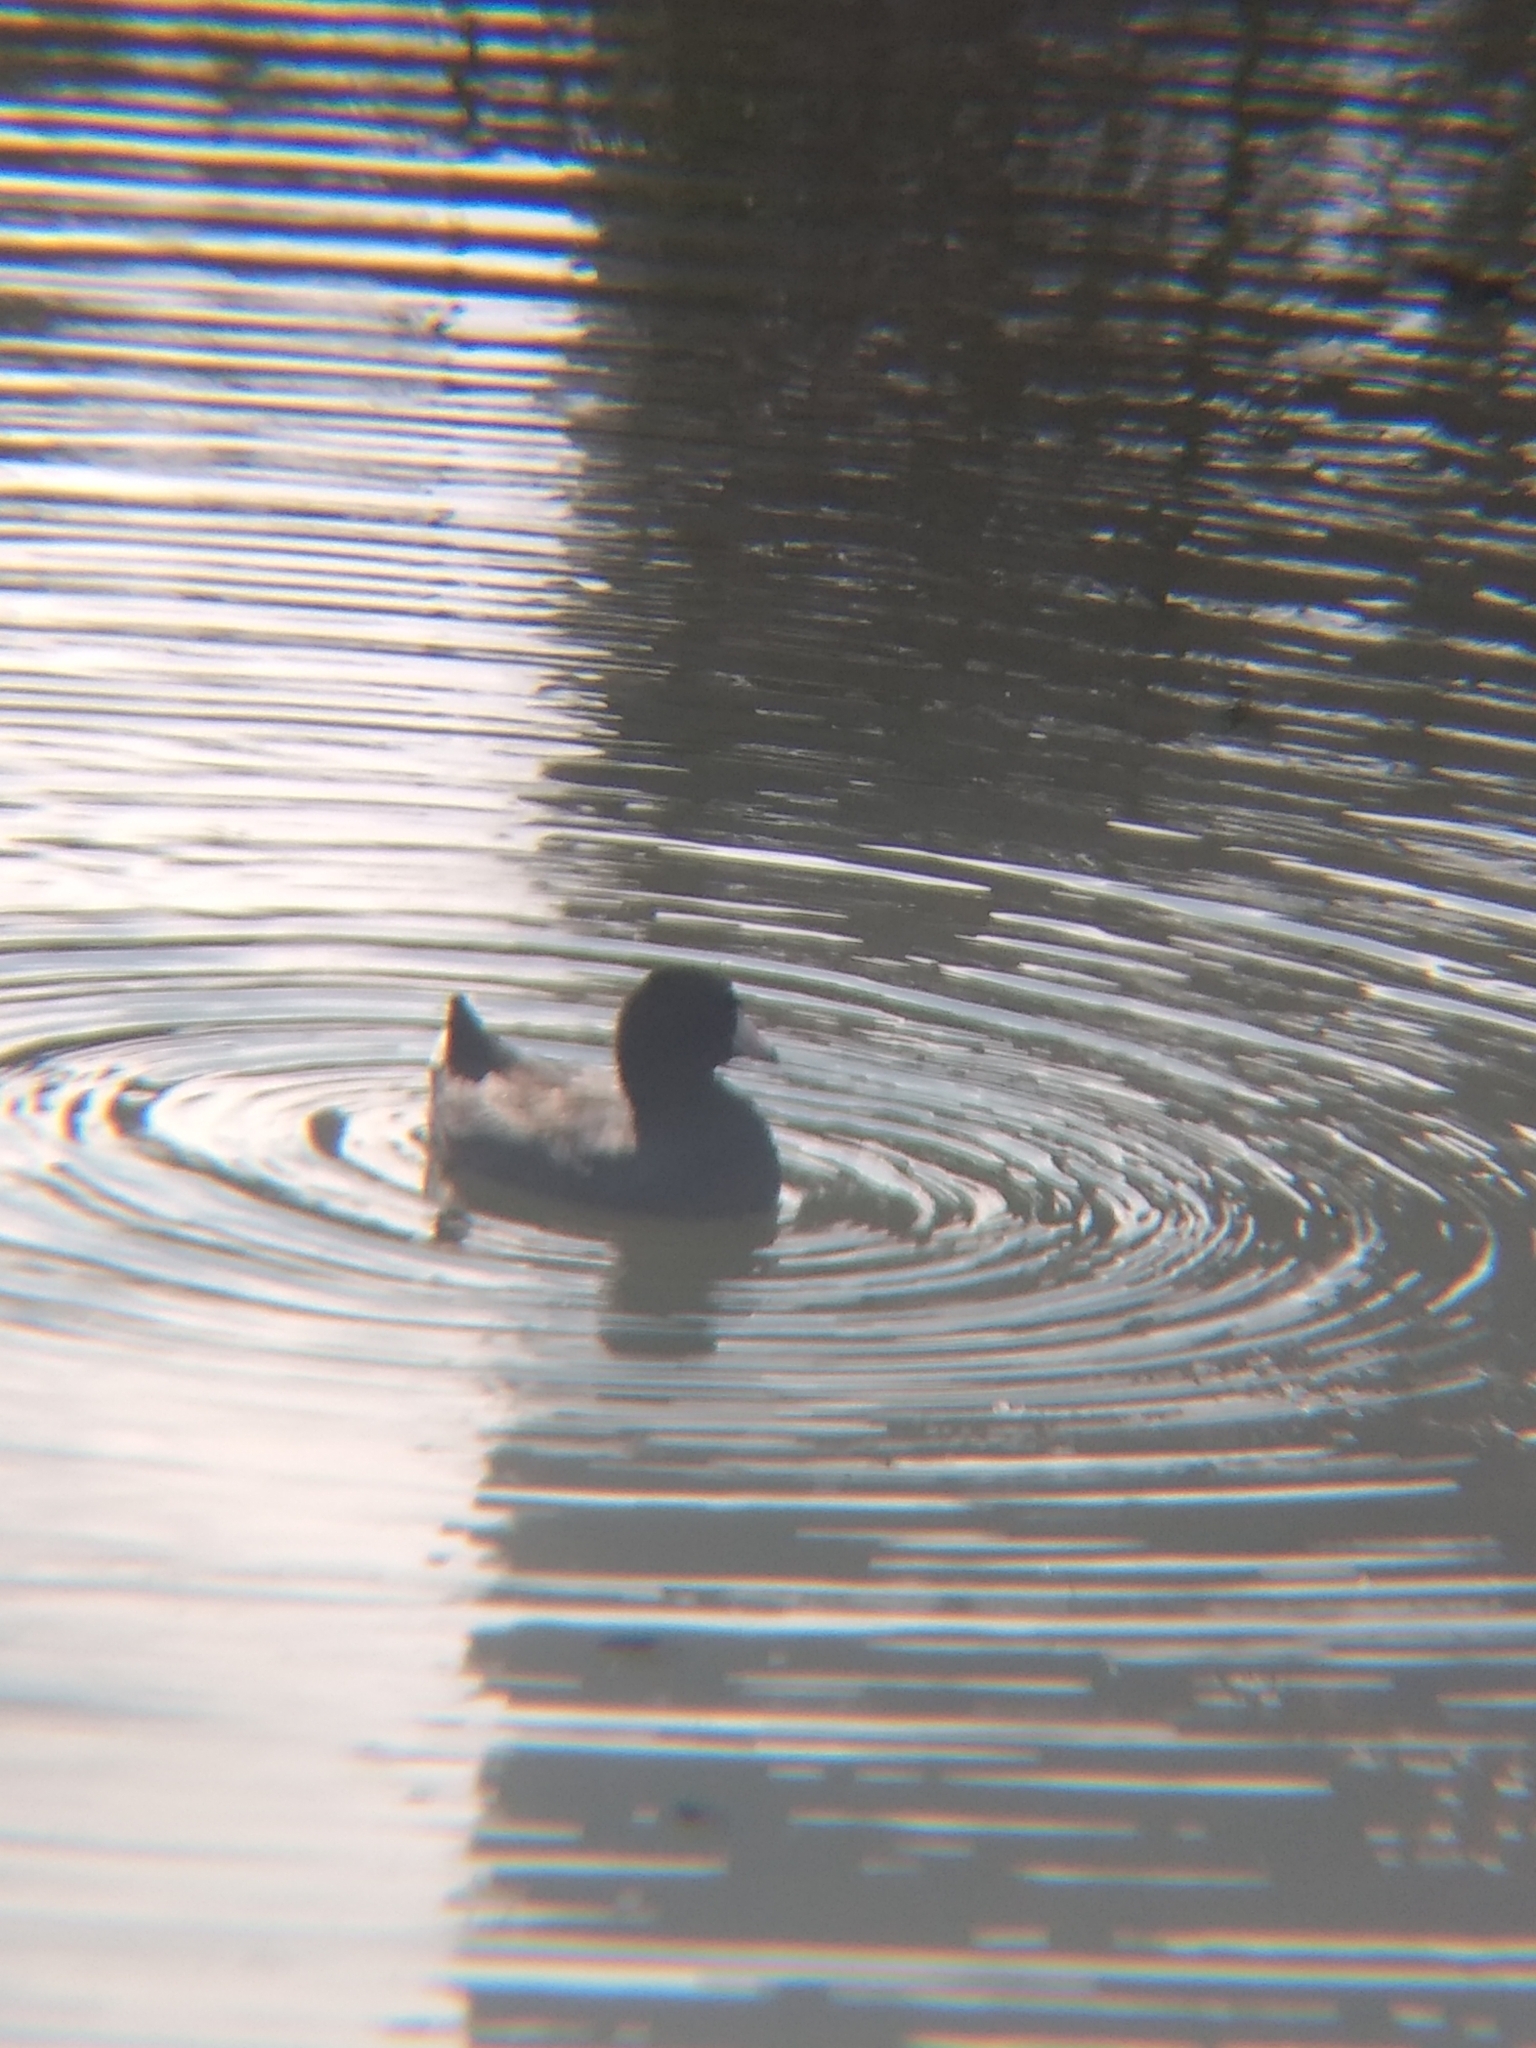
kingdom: Animalia
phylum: Chordata
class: Aves
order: Gruiformes
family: Rallidae
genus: Fulica
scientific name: Fulica americana
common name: American coot
